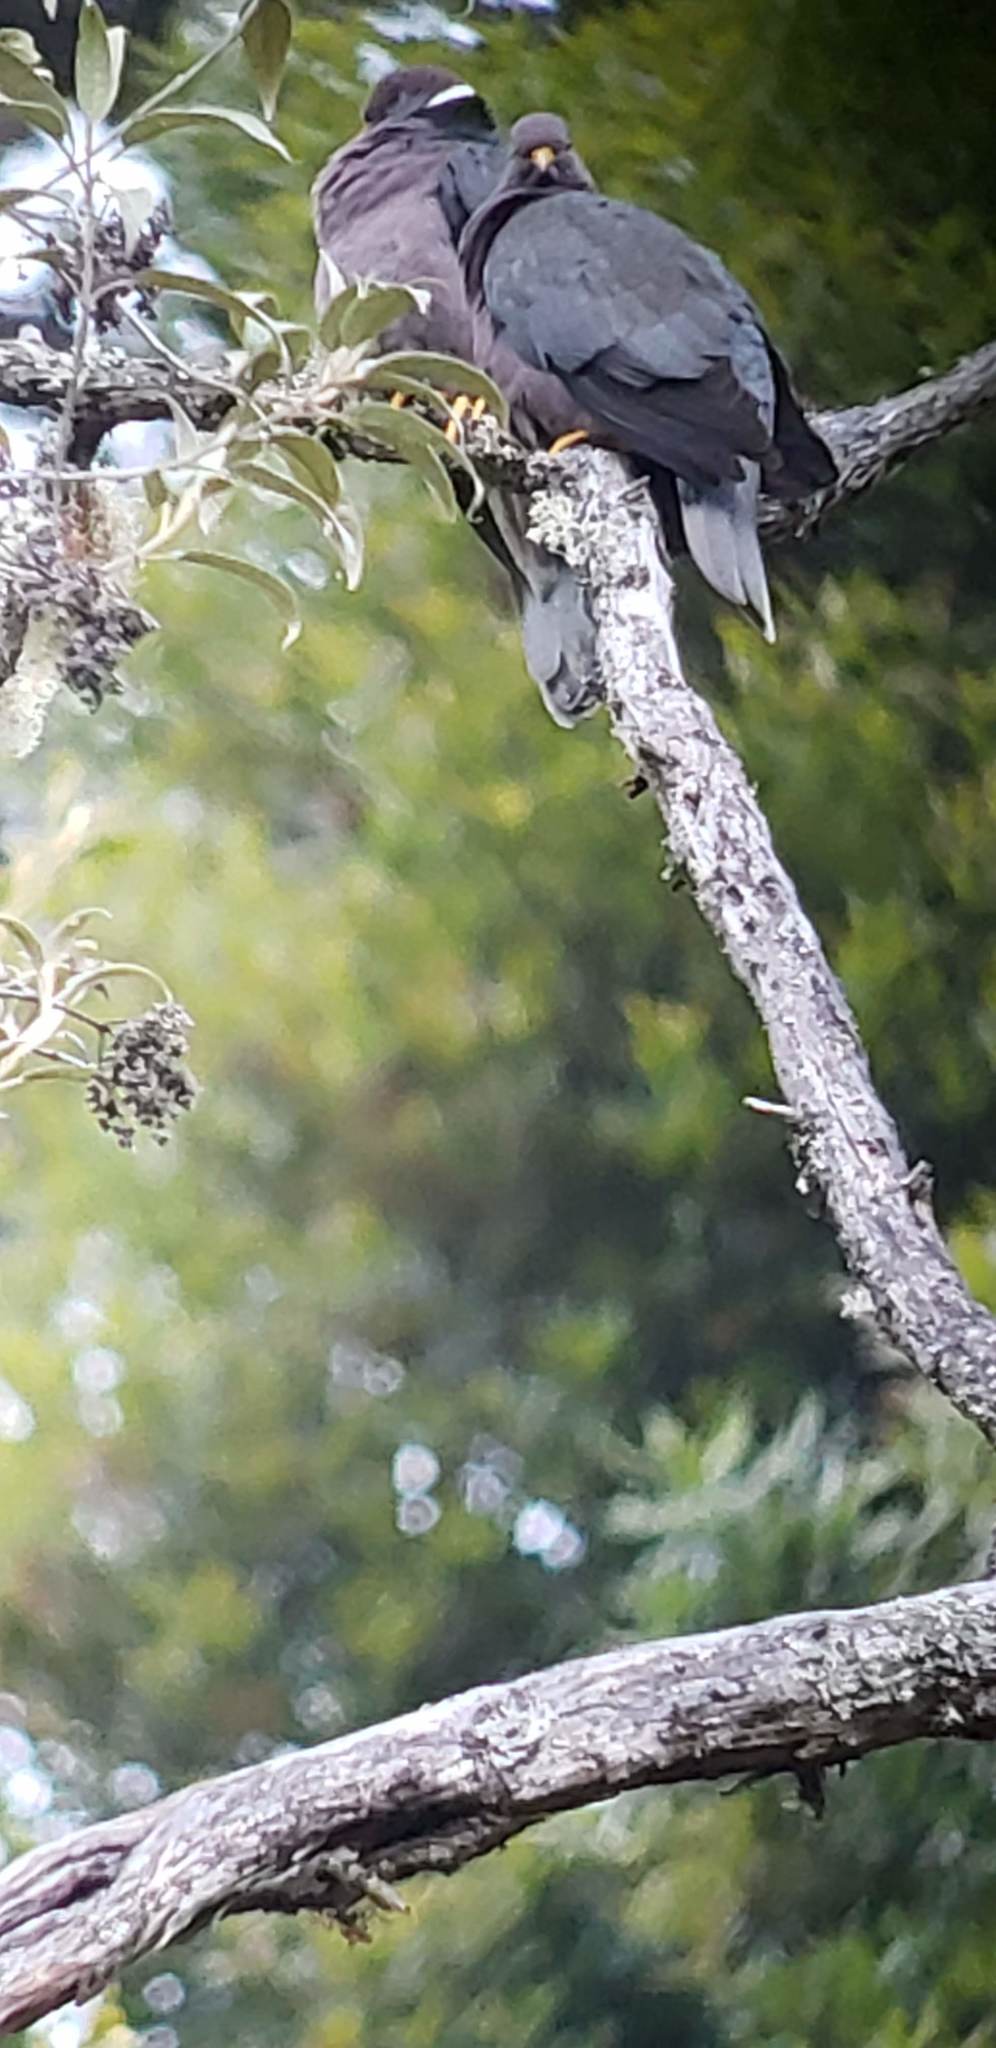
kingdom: Animalia
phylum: Chordata
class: Aves
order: Columbiformes
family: Columbidae
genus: Patagioenas
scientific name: Patagioenas fasciata
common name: Band-tailed pigeon
